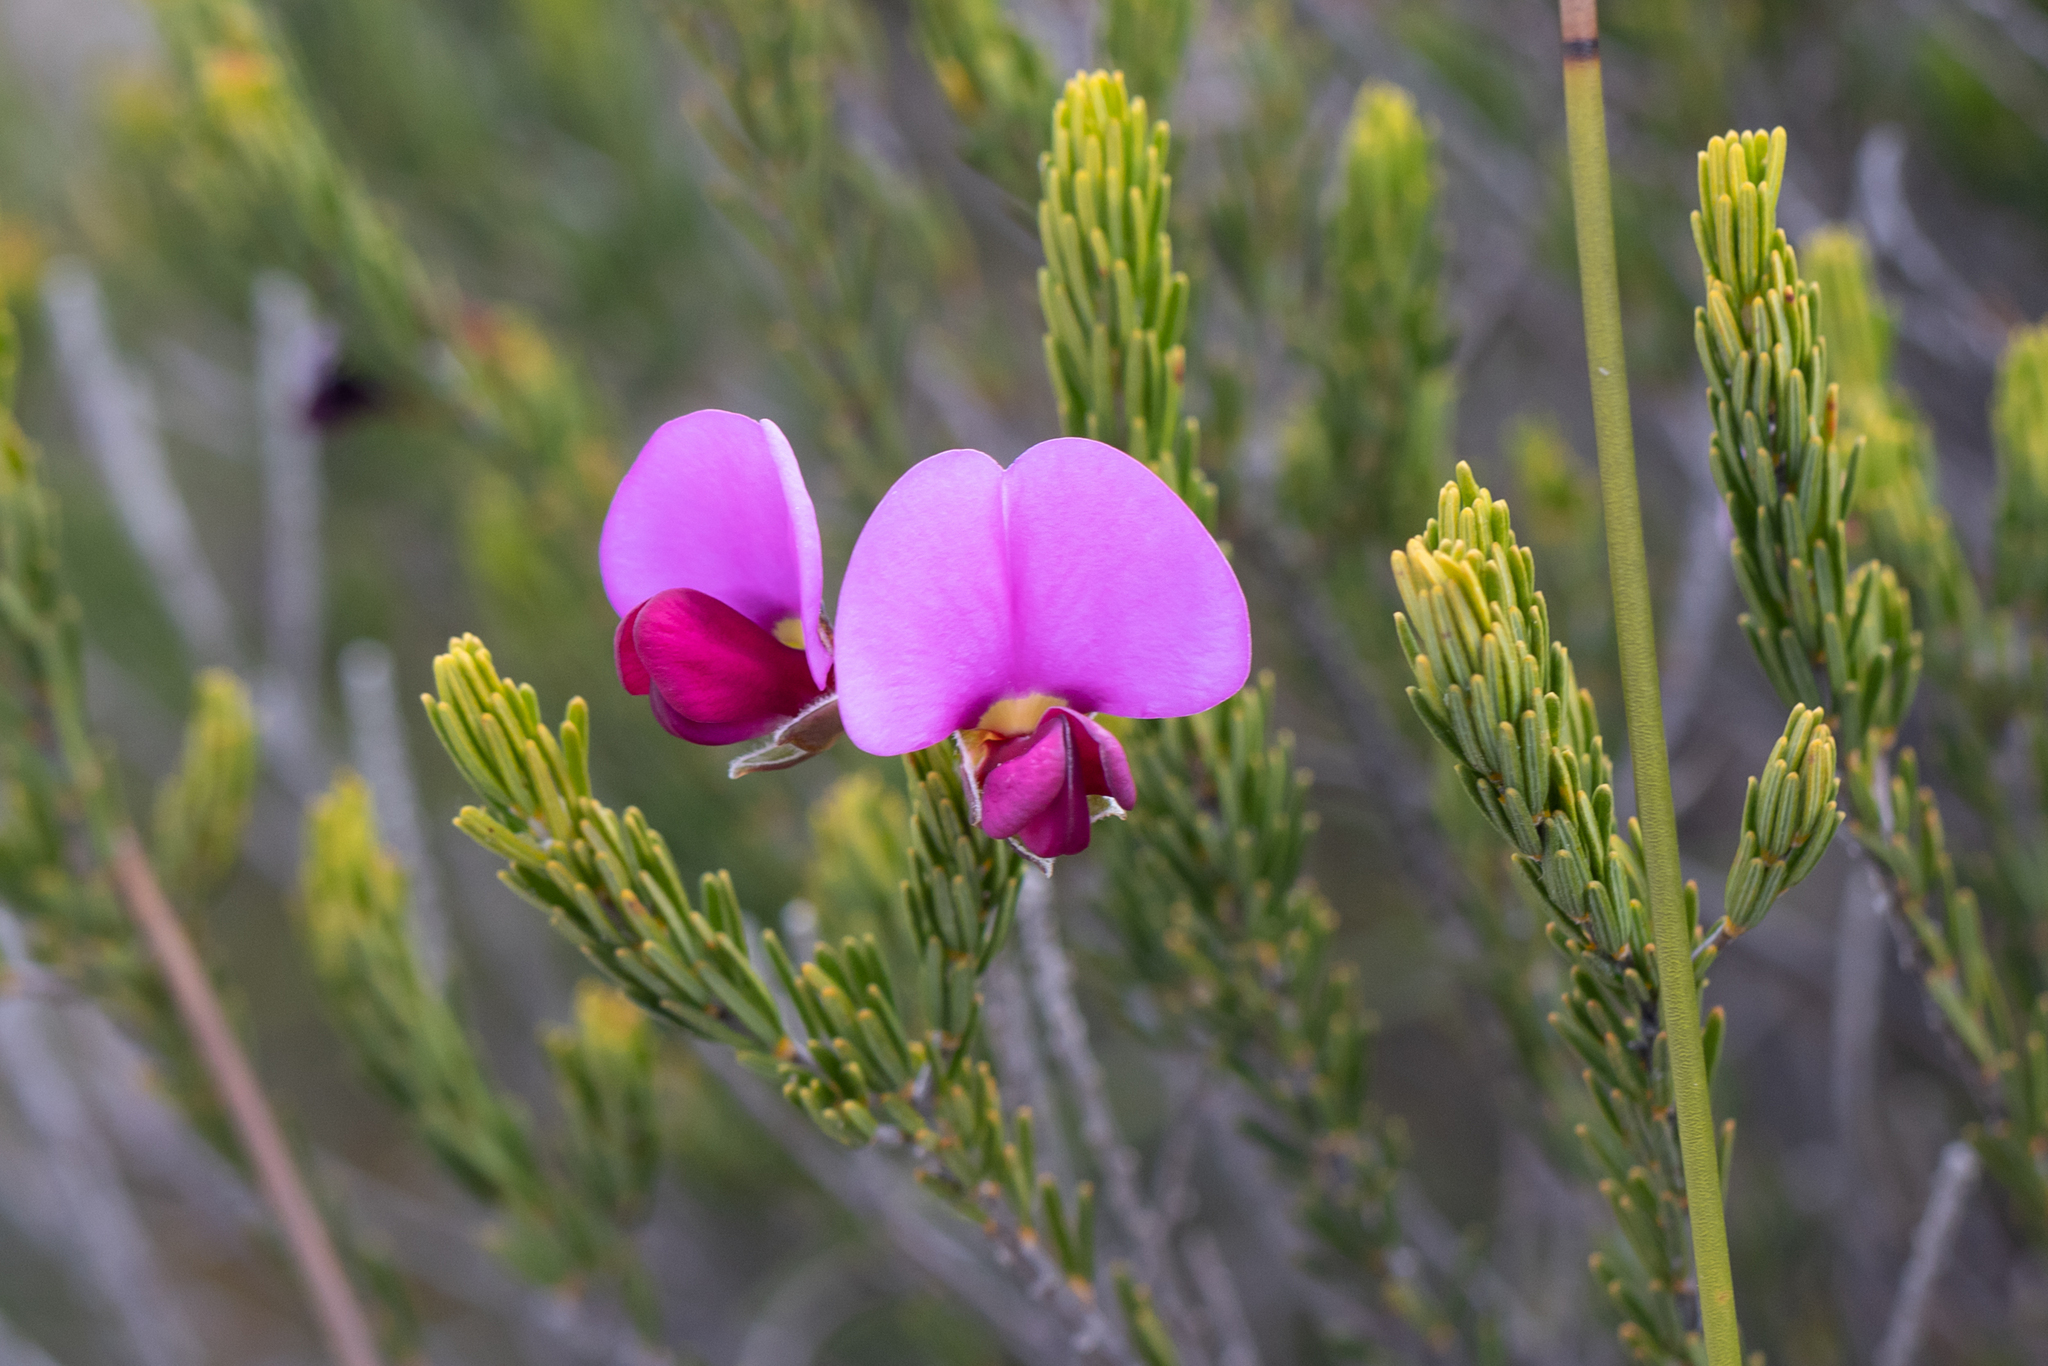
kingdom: Plantae
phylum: Tracheophyta
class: Magnoliopsida
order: Fabales
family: Fabaceae
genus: Gompholobium
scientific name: Gompholobium scabrum
